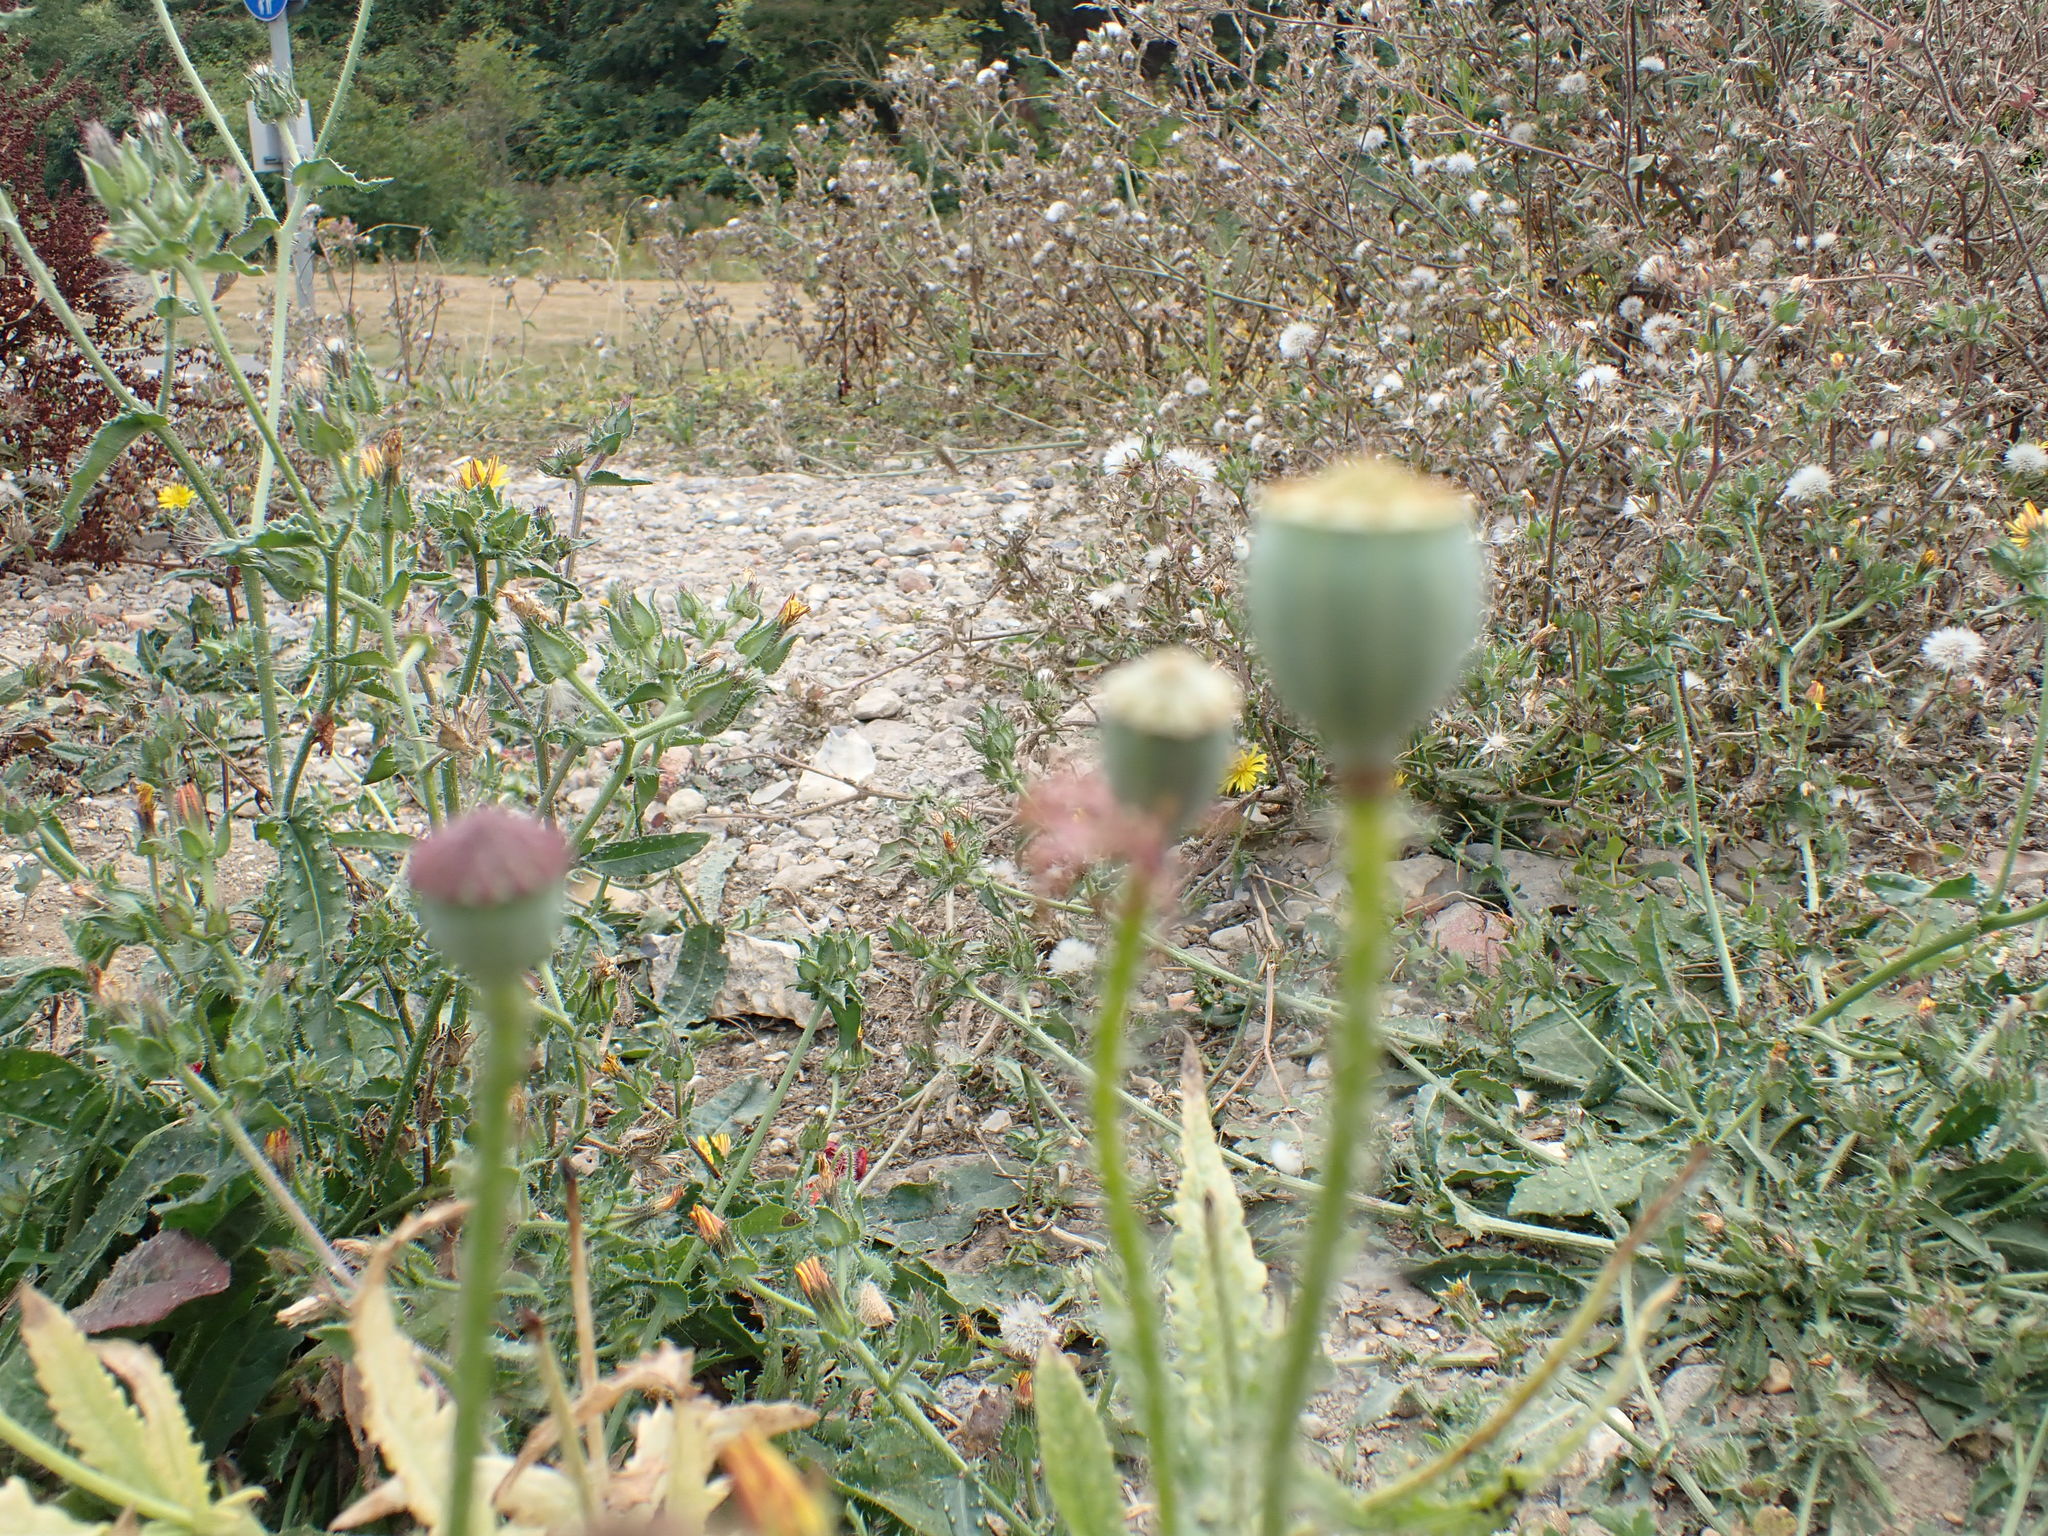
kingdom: Plantae
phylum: Tracheophyta
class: Magnoliopsida
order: Ranunculales
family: Papaveraceae
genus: Papaver
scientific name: Papaver rhoeas
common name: Corn poppy
